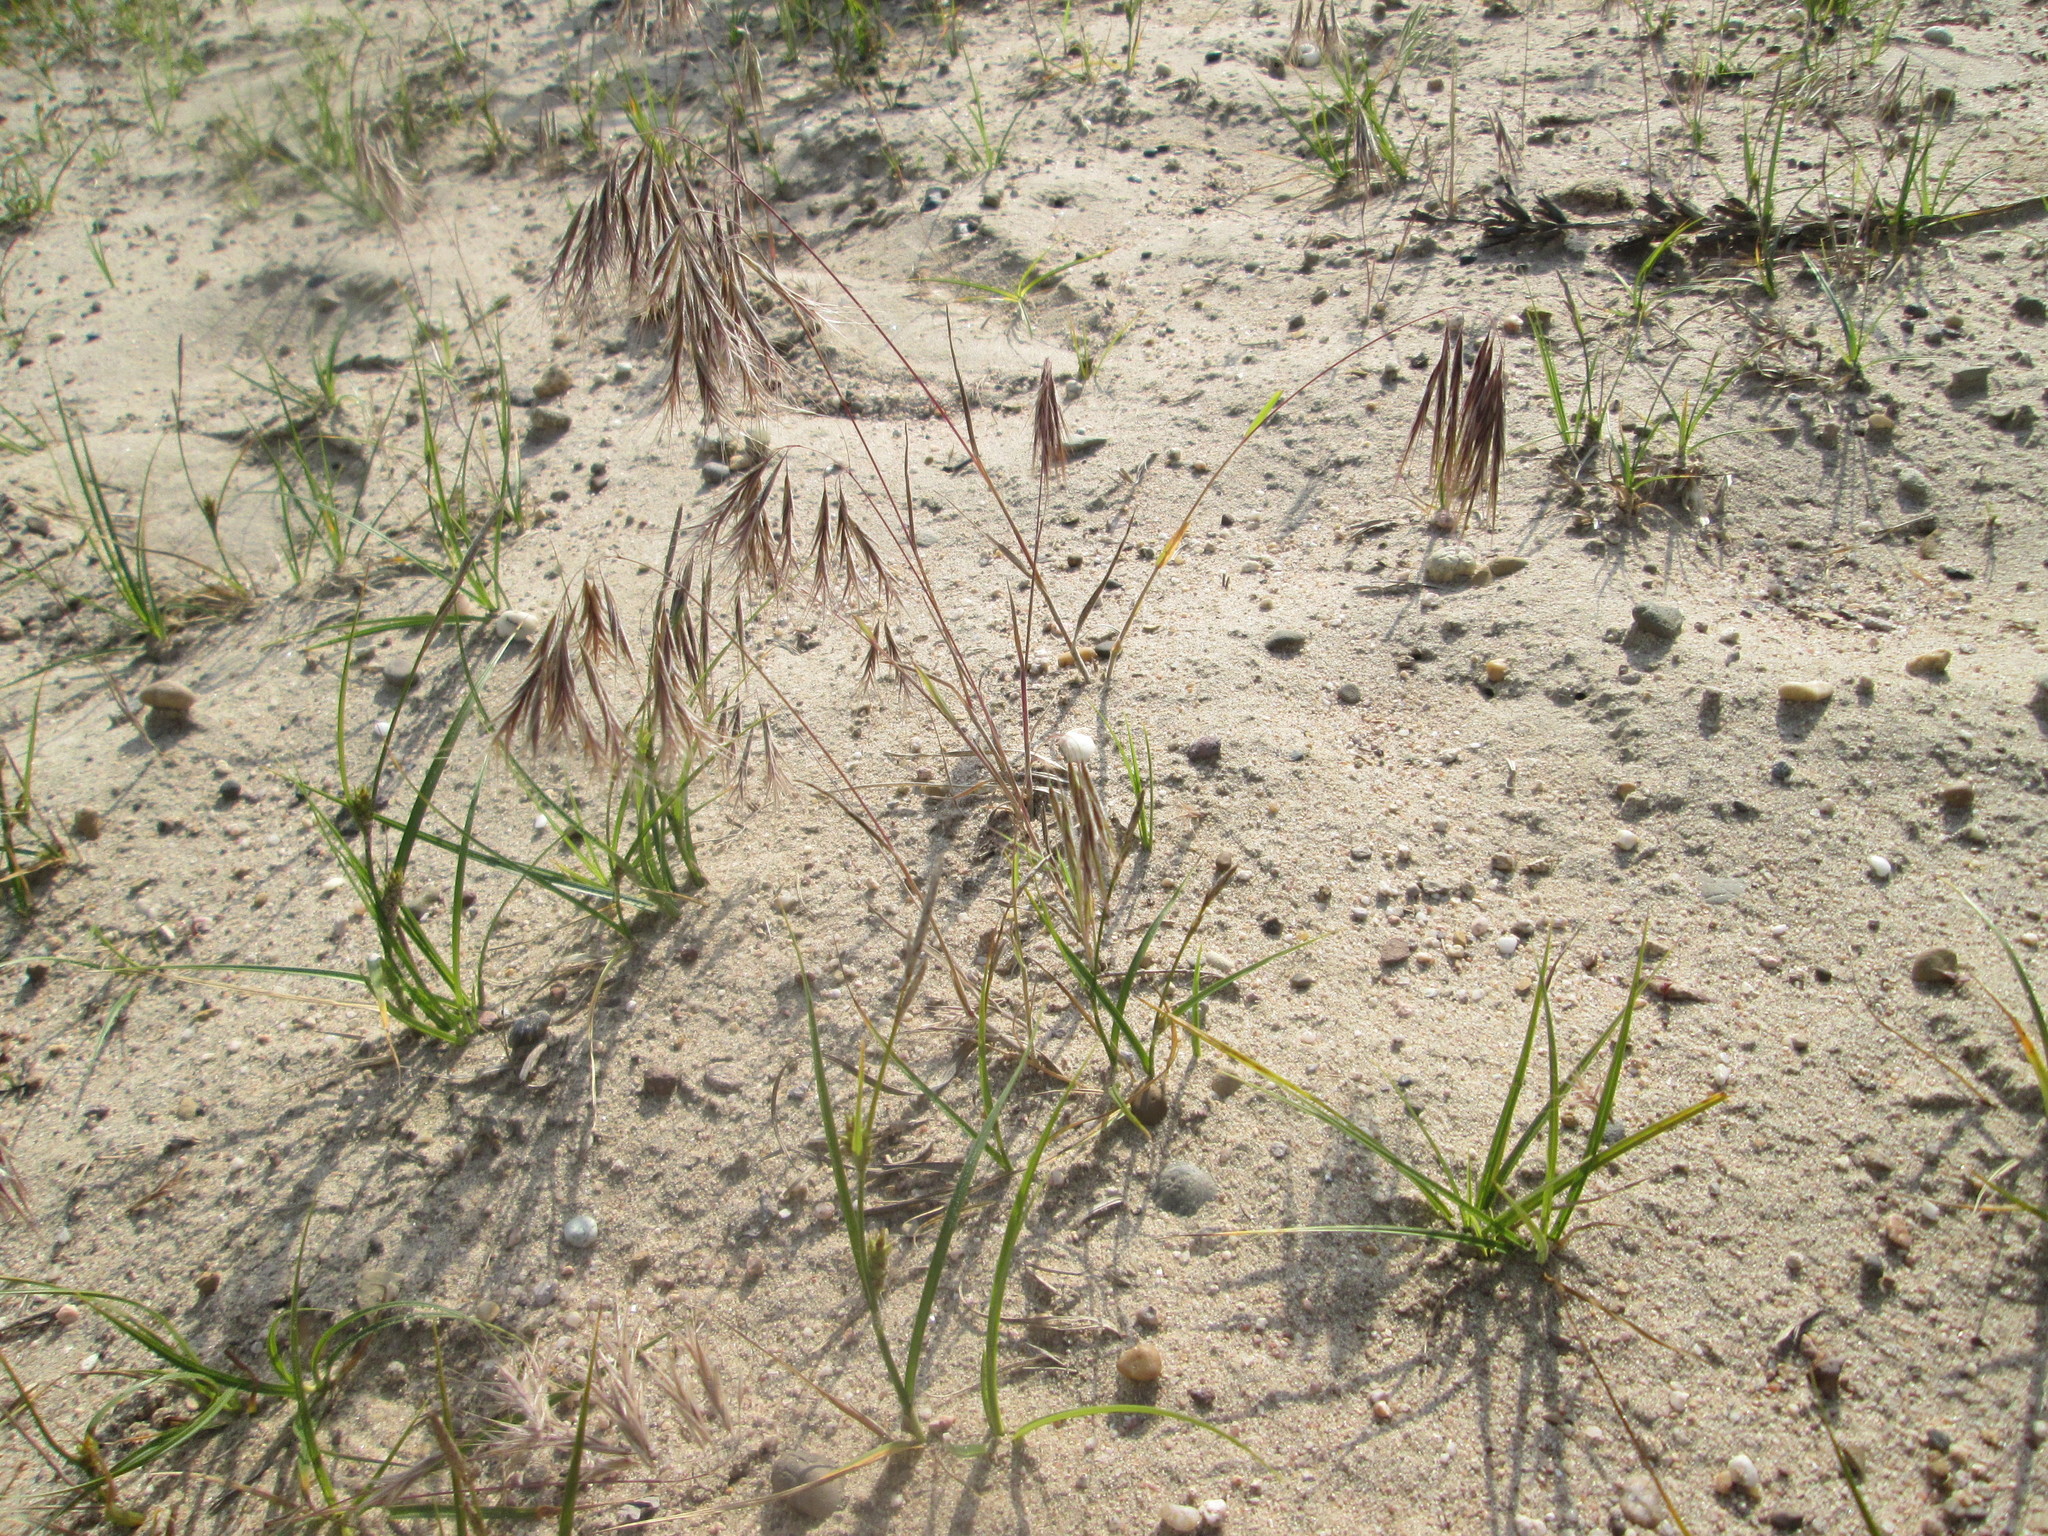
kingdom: Plantae
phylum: Tracheophyta
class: Liliopsida
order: Poales
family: Poaceae
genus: Bromus
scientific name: Bromus tectorum
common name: Cheatgrass
